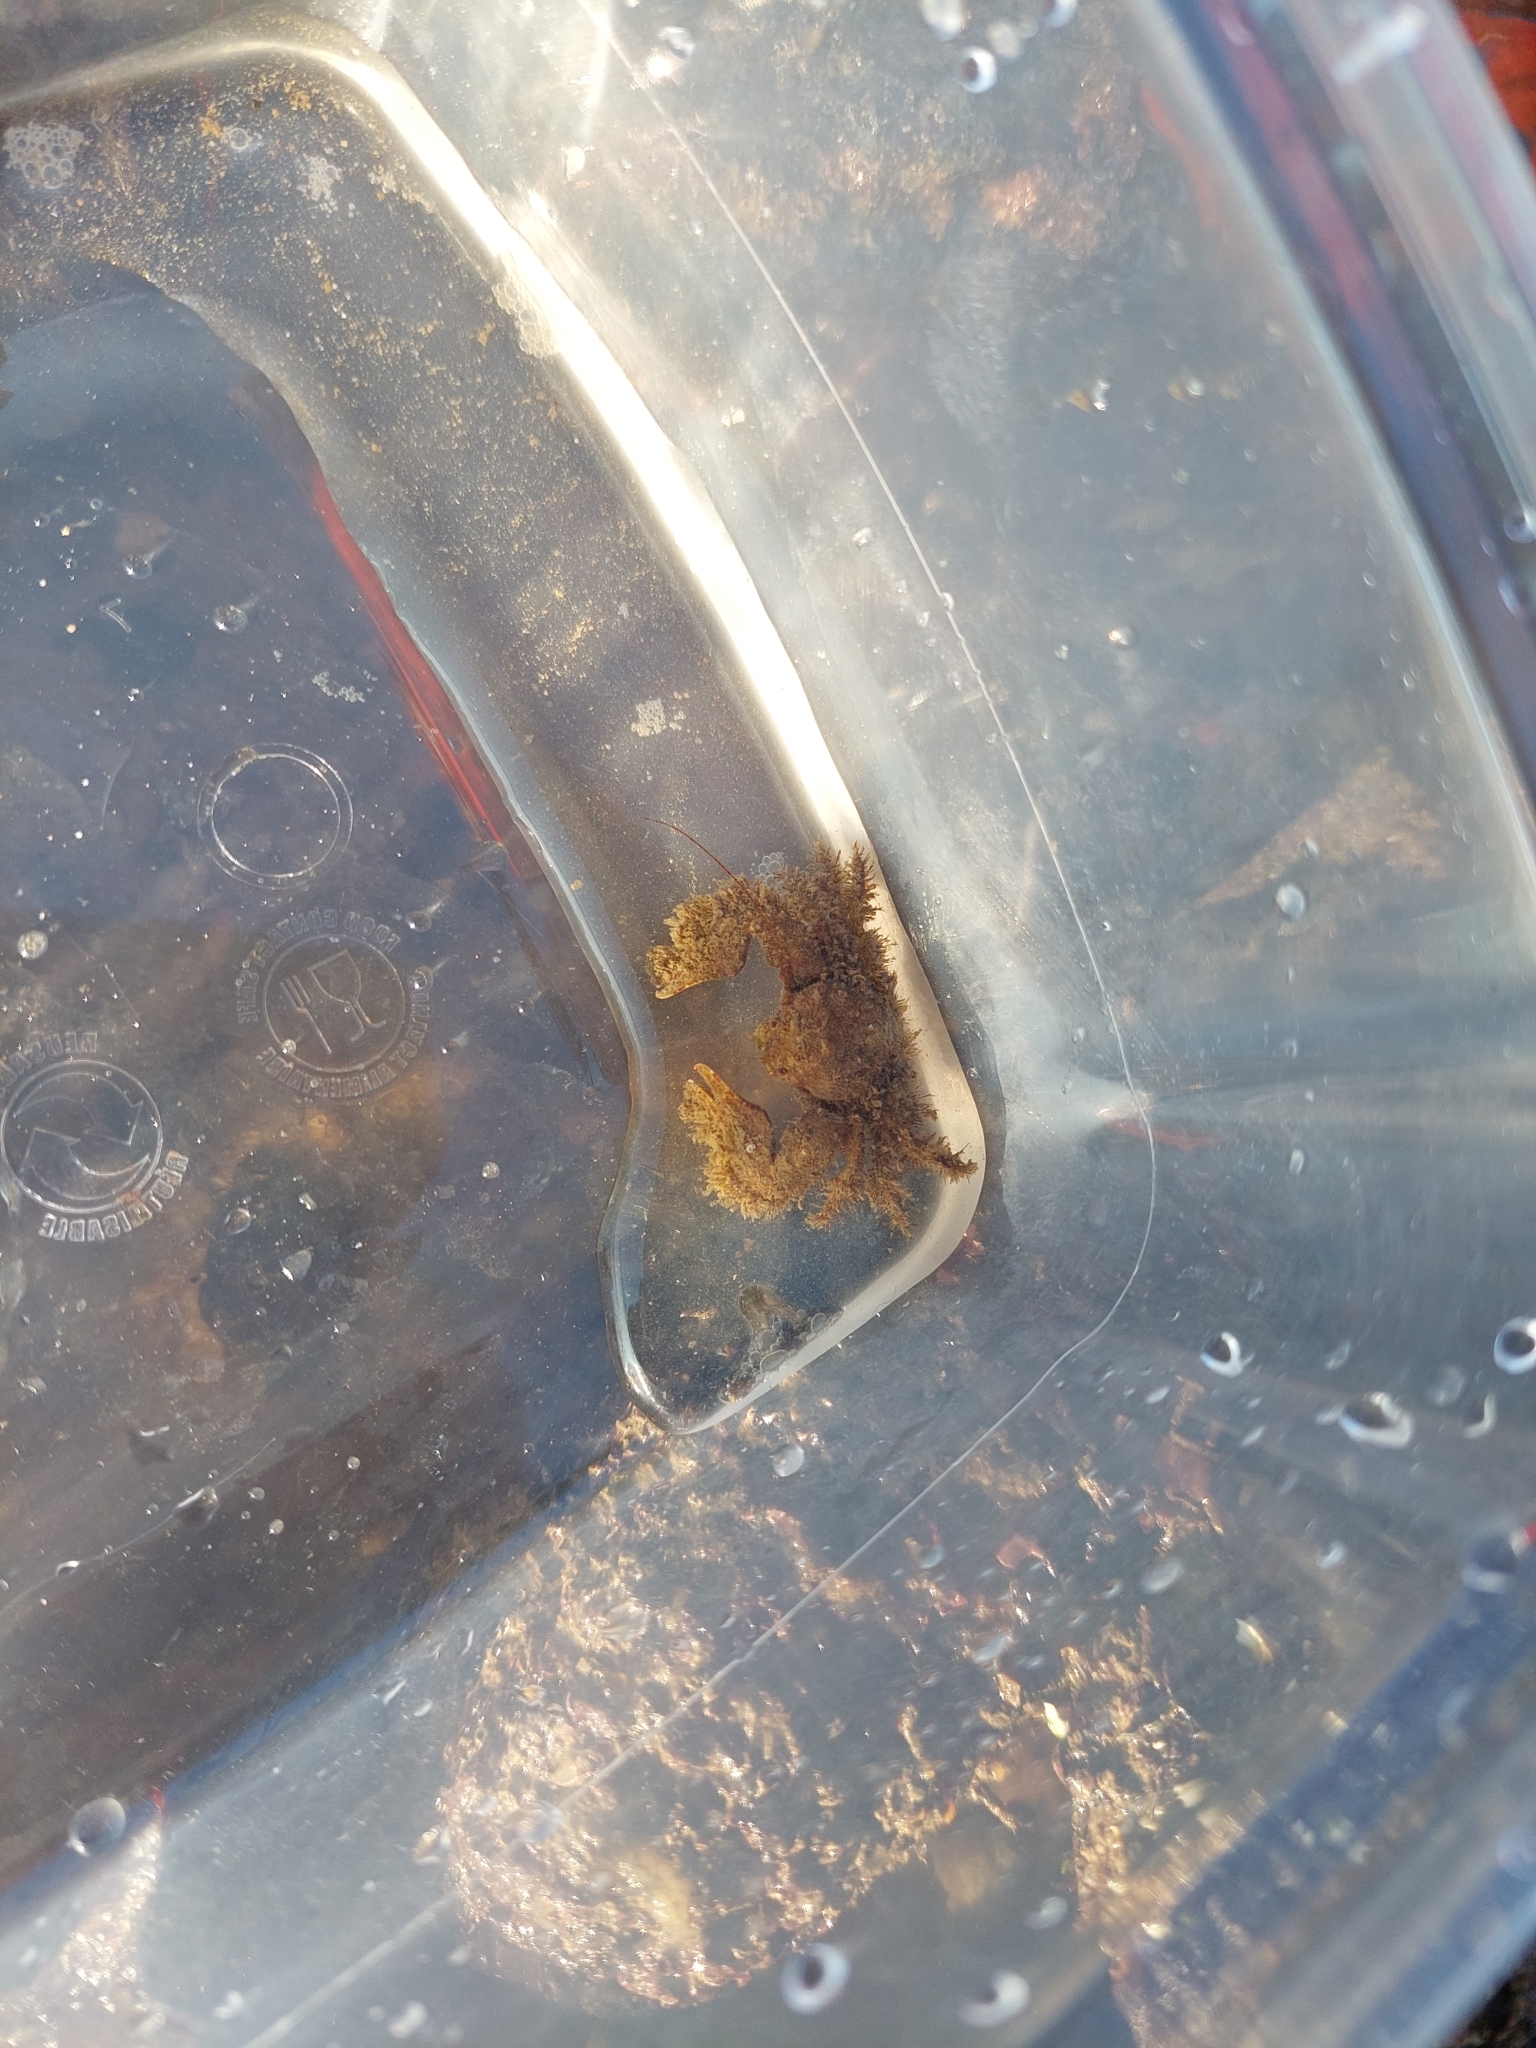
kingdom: Animalia
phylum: Arthropoda
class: Malacostraca
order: Decapoda
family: Porcellanidae
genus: Porcellana
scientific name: Porcellana platycheles
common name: Porcelain crab
